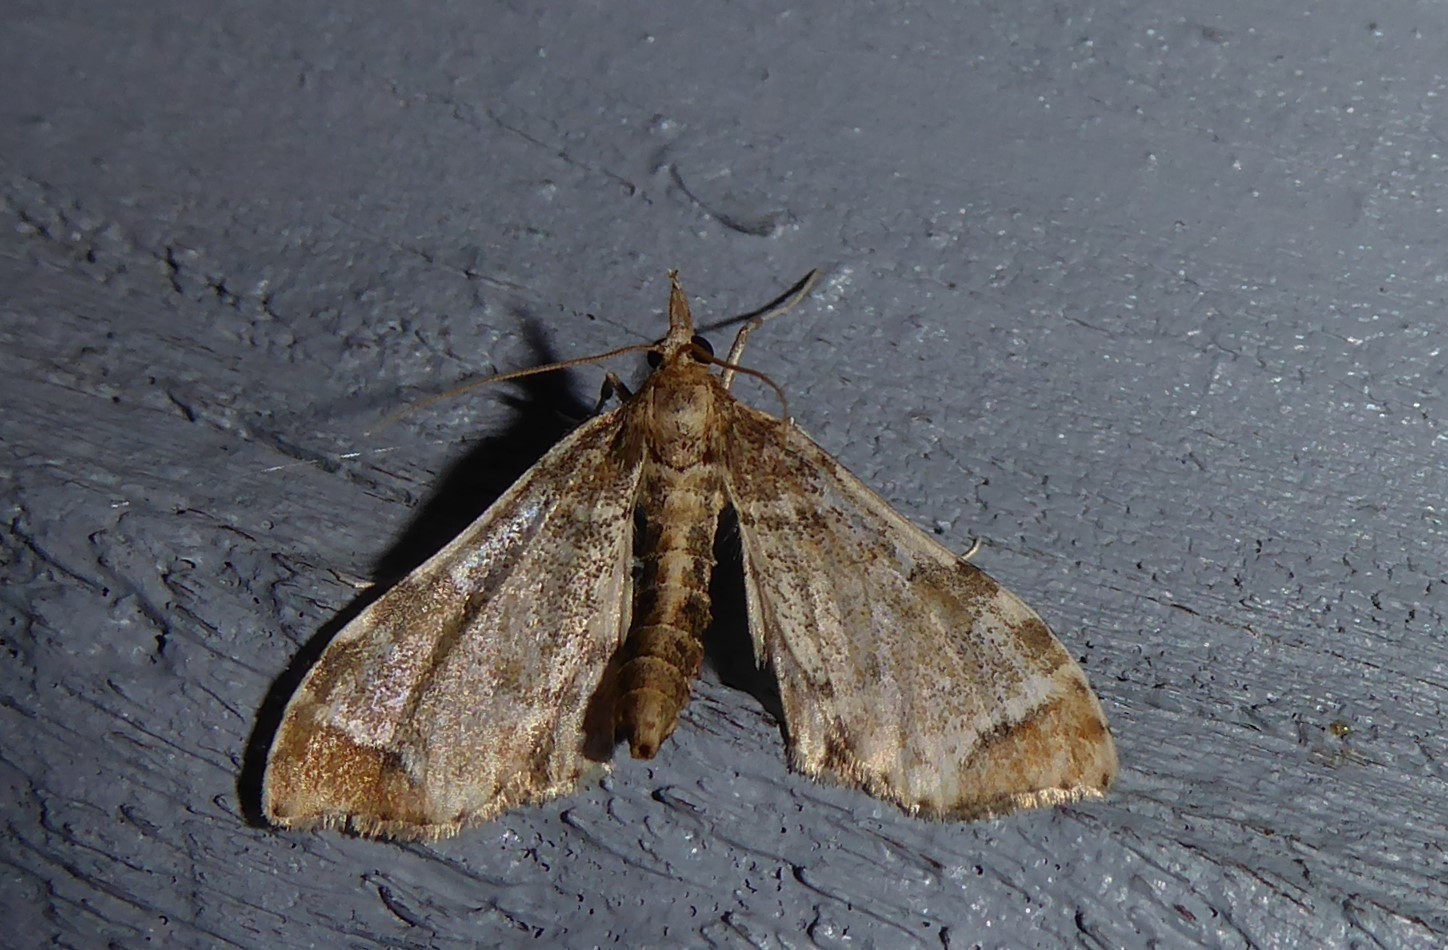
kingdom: Animalia
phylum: Arthropoda
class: Insecta
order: Lepidoptera
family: Crambidae
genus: Sceliodes
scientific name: Sceliodes cordalis
